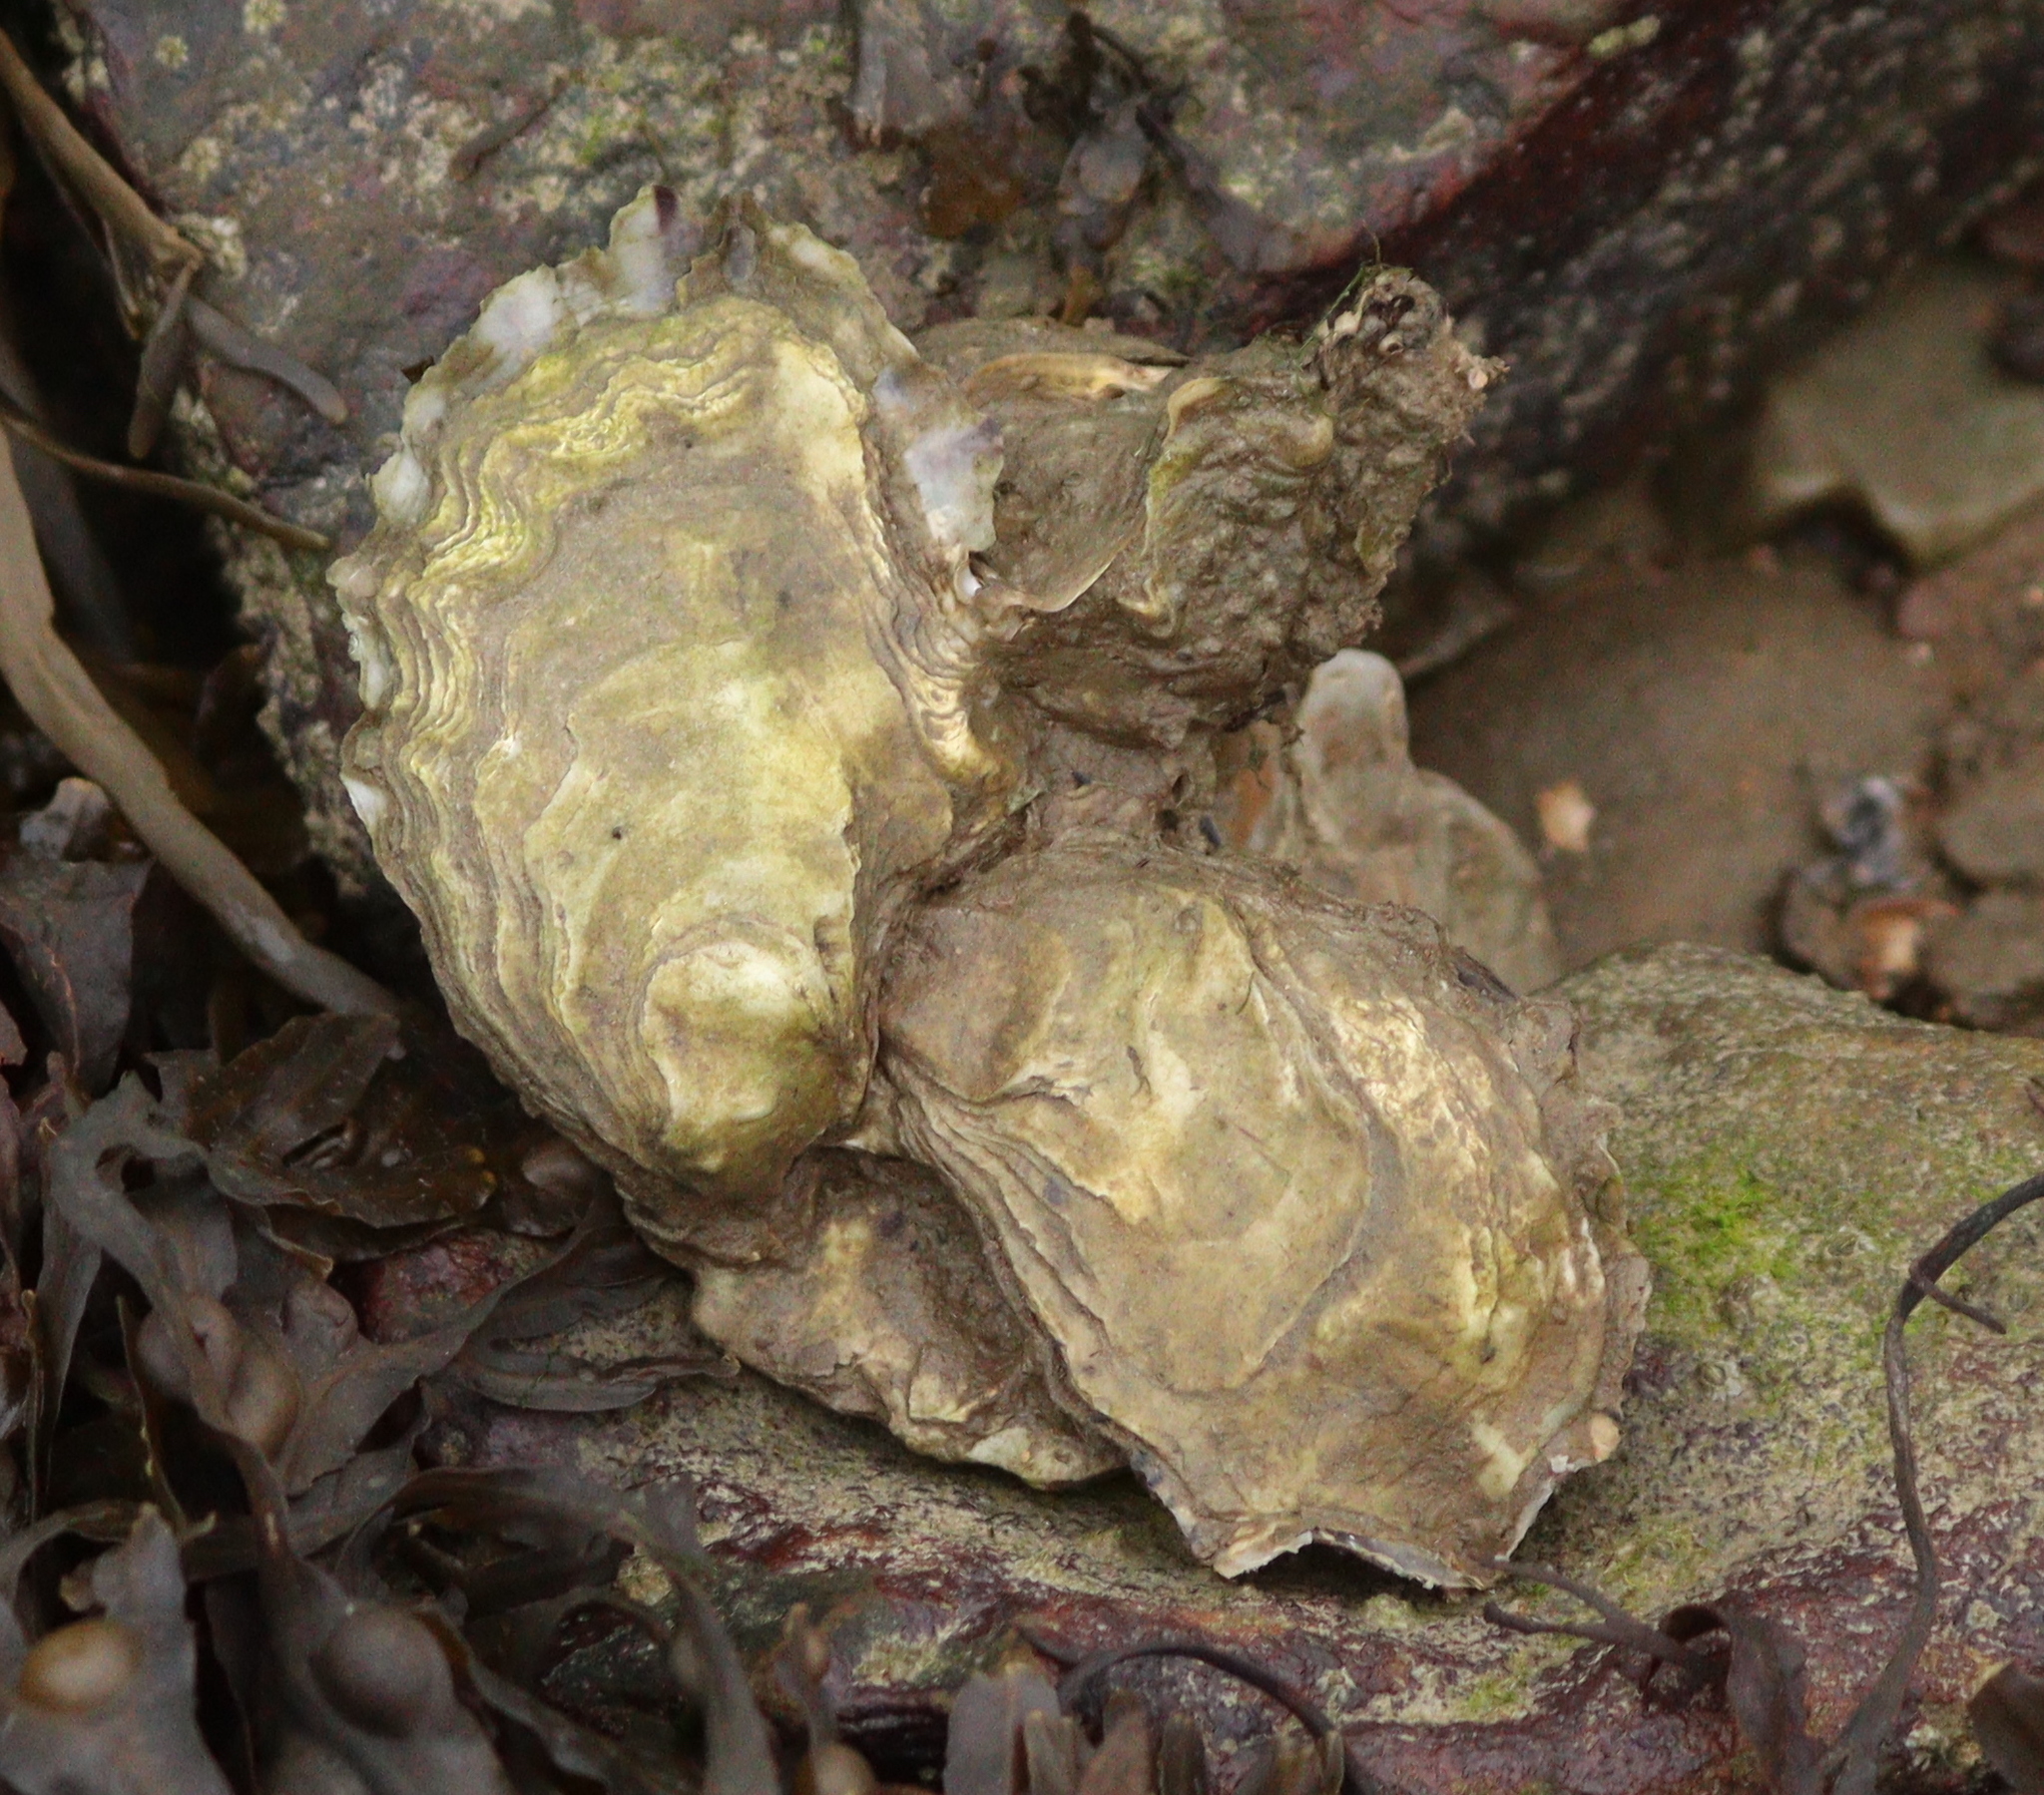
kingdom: Animalia
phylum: Mollusca
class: Bivalvia
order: Ostreida
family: Ostreidae
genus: Magallana
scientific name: Magallana gigas
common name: Pacific oyster
